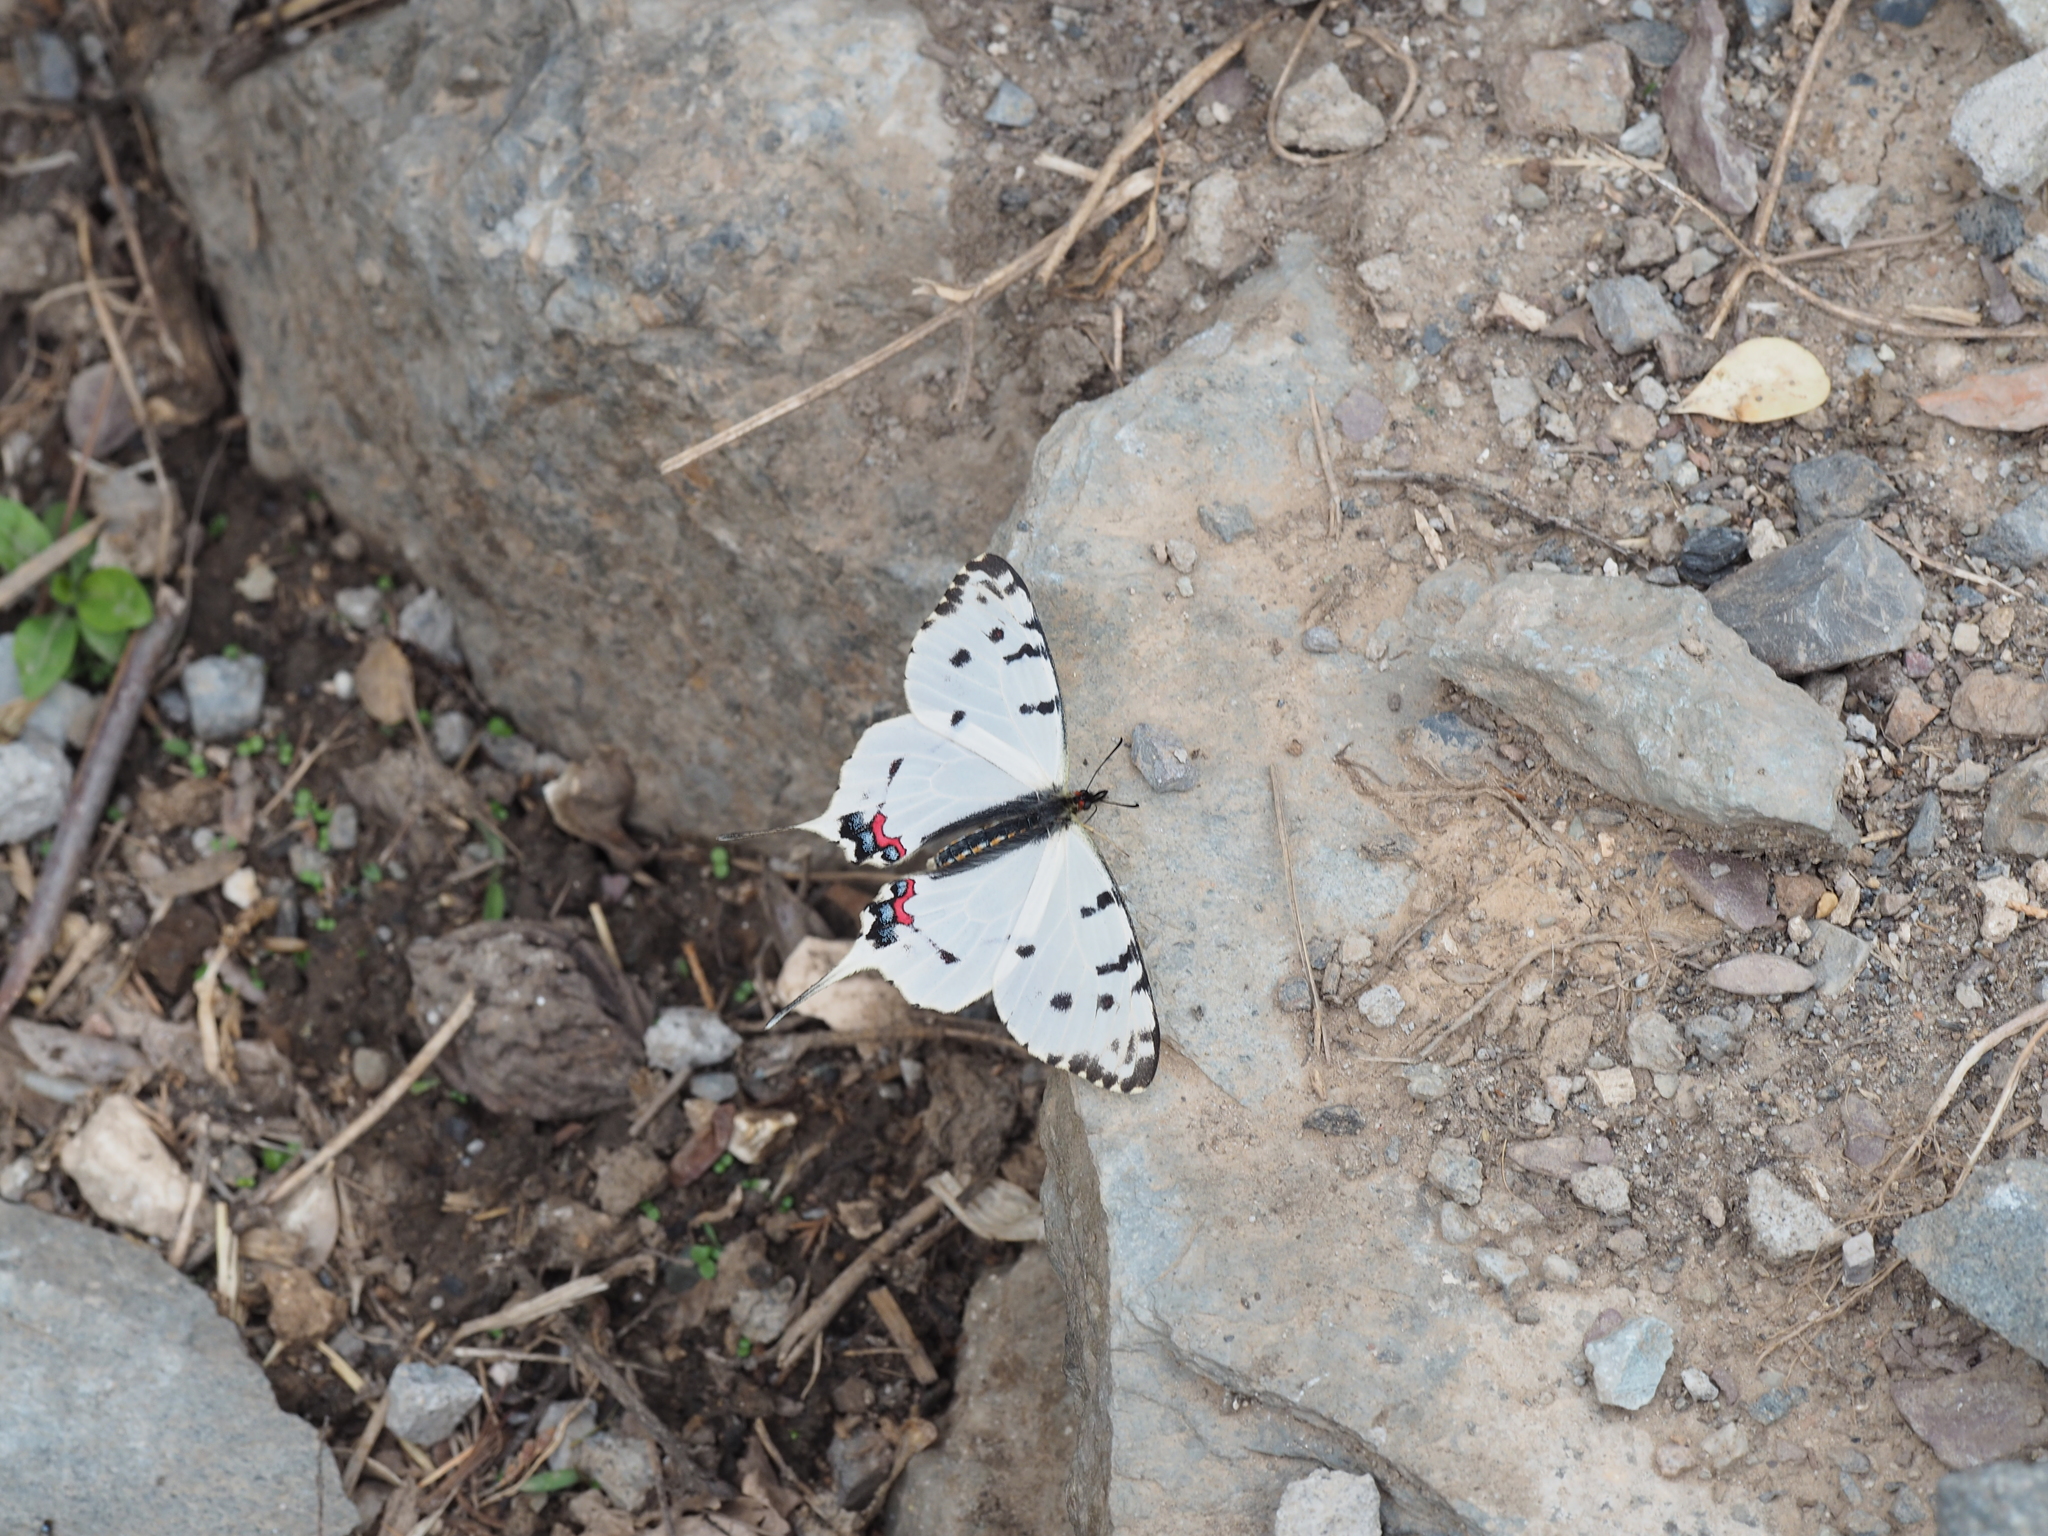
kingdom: Animalia
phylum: Arthropoda
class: Insecta
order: Lepidoptera
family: Papilionidae
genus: Sericinus
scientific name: Sericinus montela
